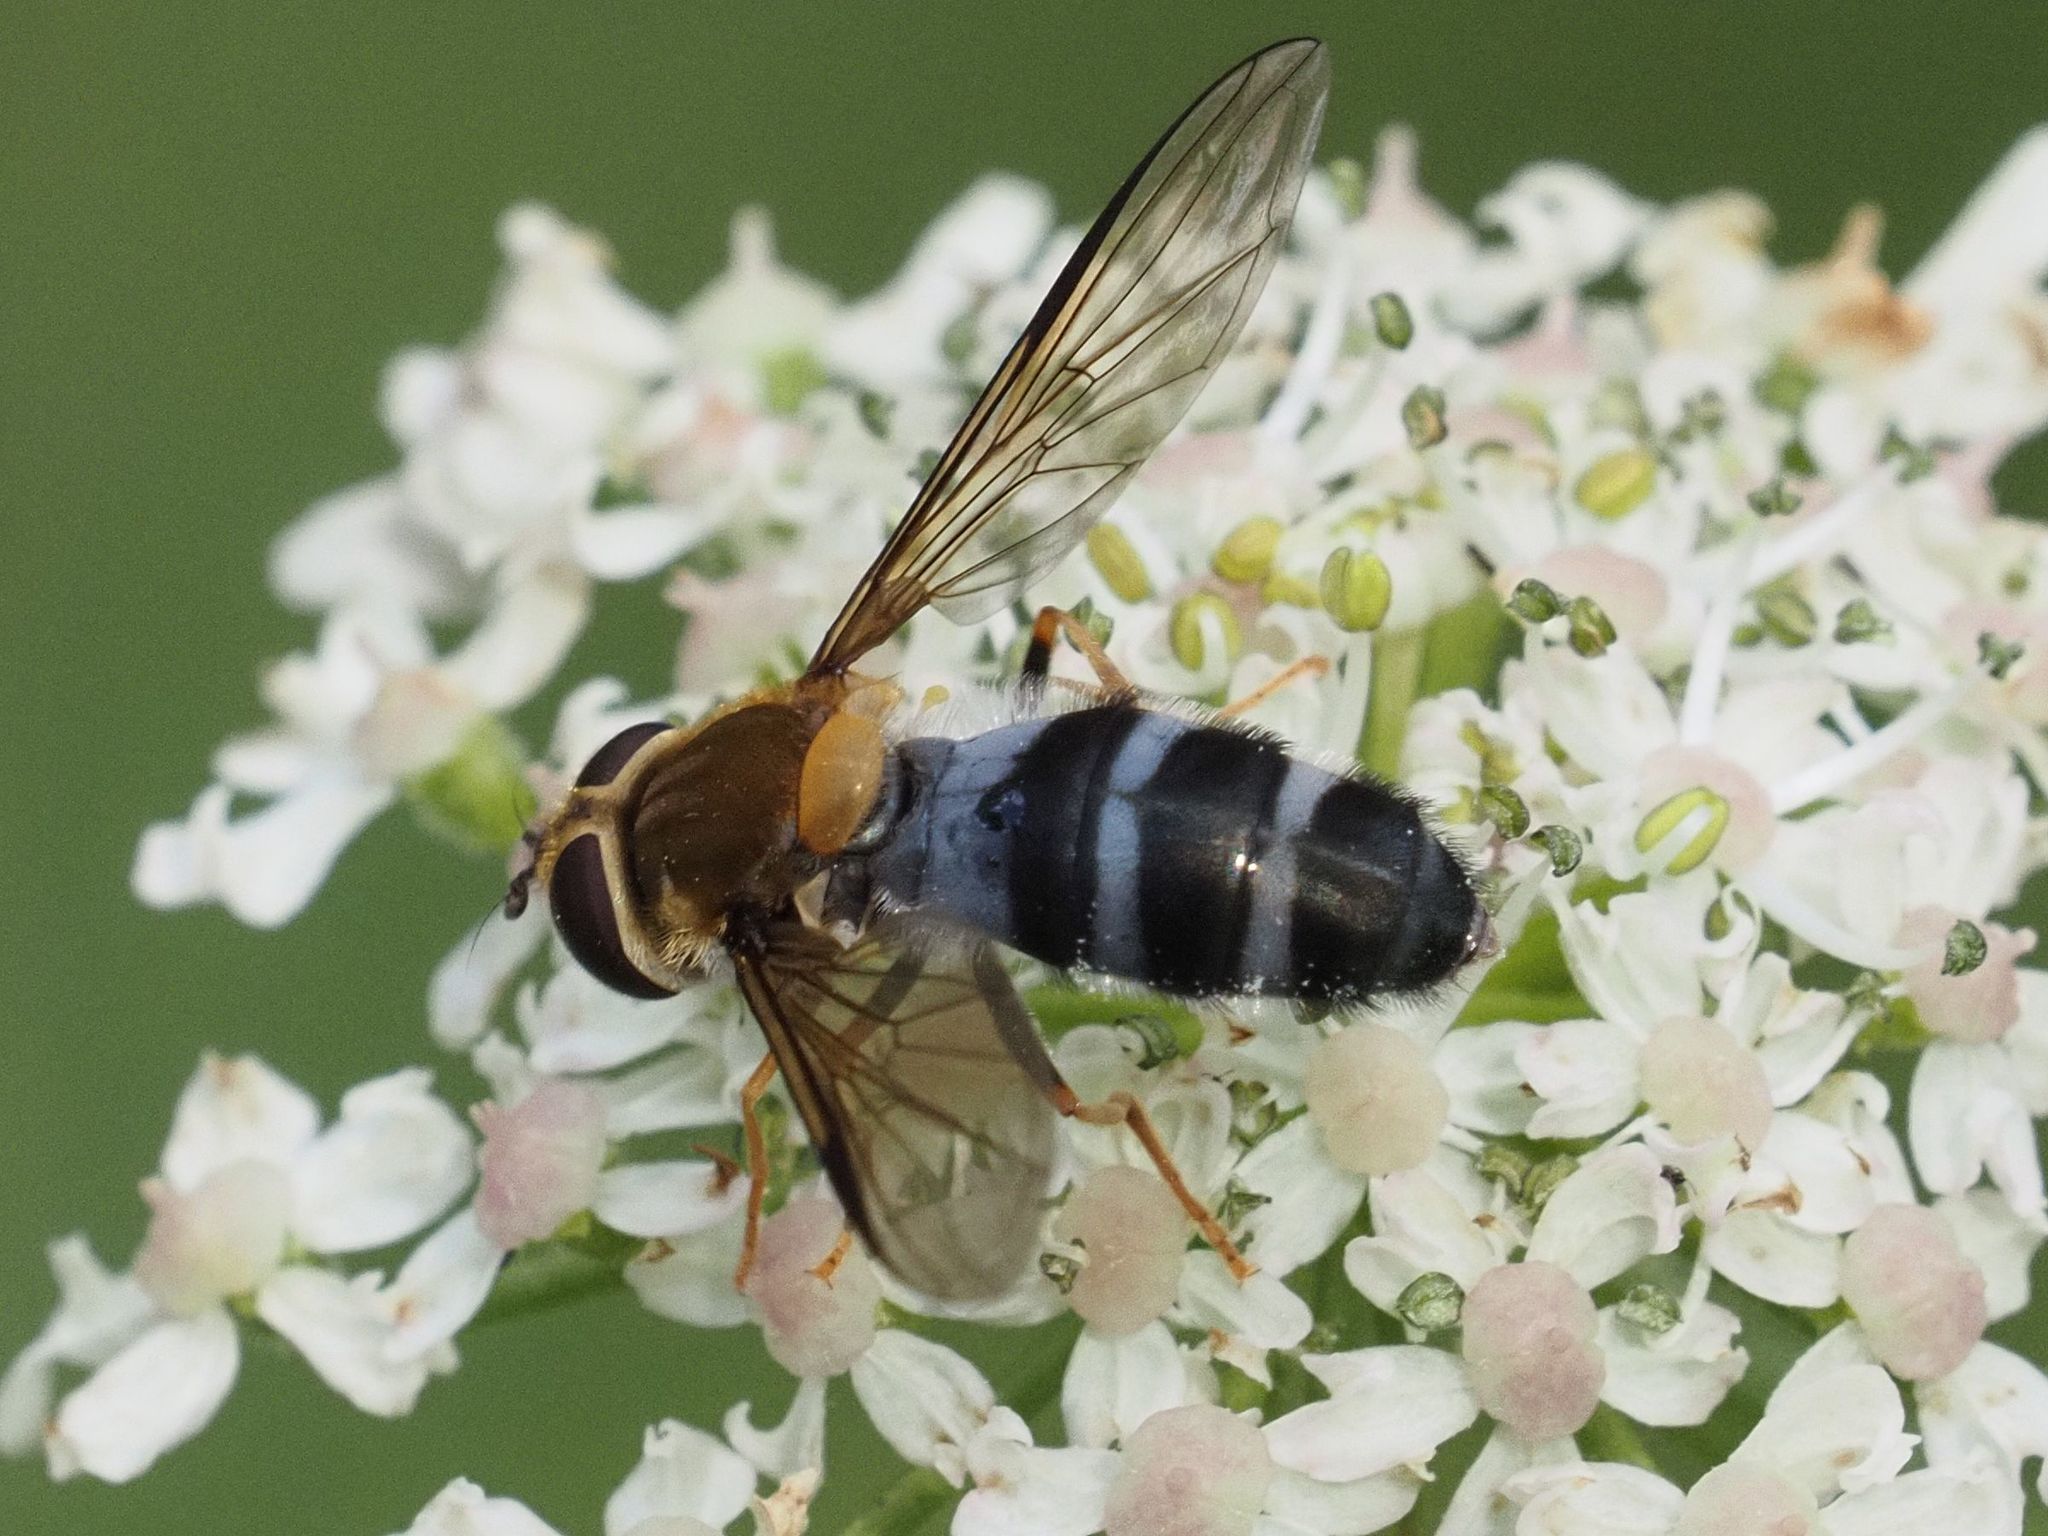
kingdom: Animalia
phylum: Arthropoda
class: Insecta
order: Diptera
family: Syrphidae
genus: Leucozona
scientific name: Leucozona glaucia
